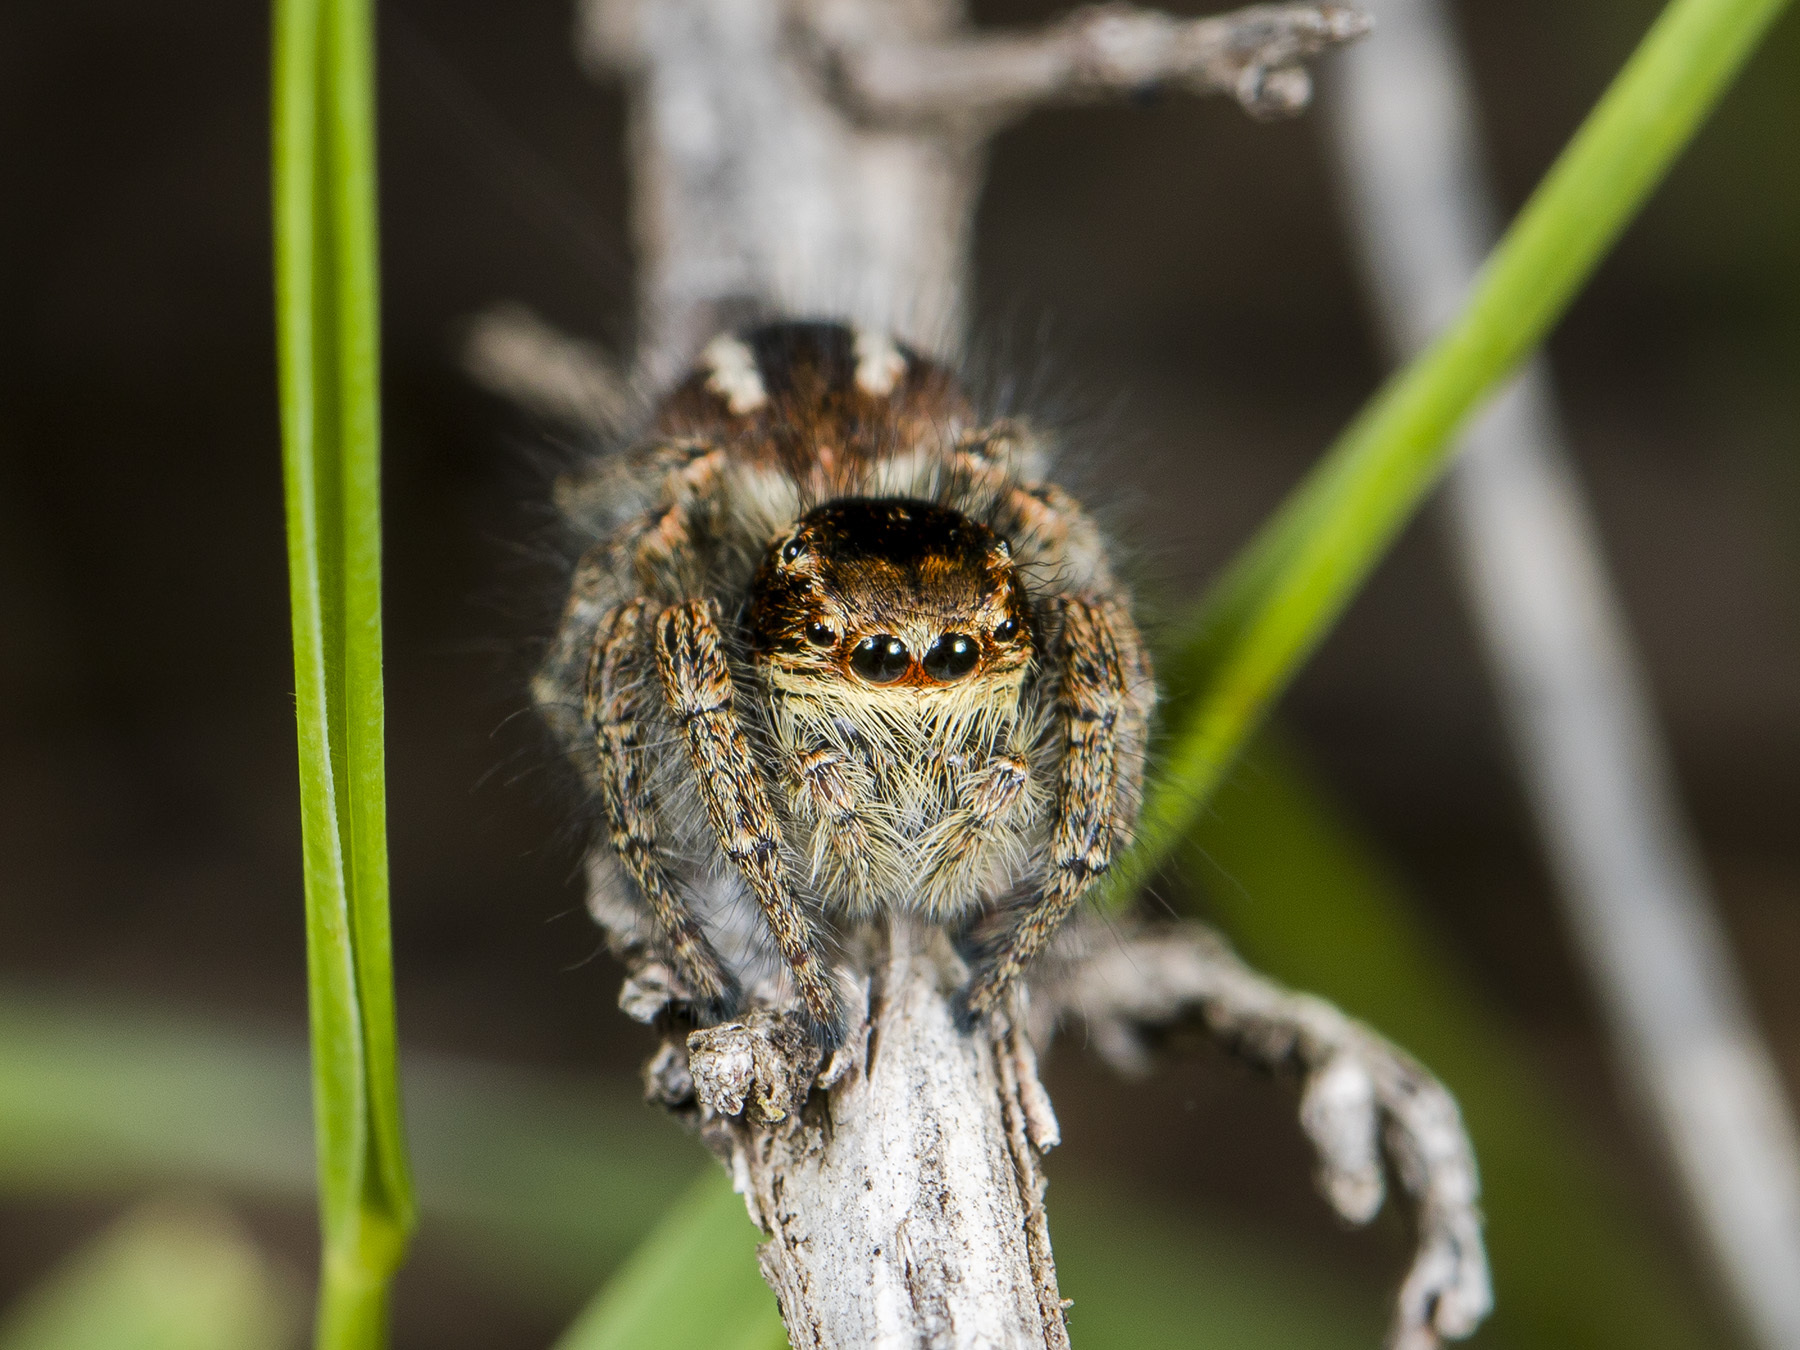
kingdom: Animalia
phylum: Arthropoda
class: Arachnida
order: Araneae
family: Salticidae
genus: Philaeus
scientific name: Philaeus chrysops
